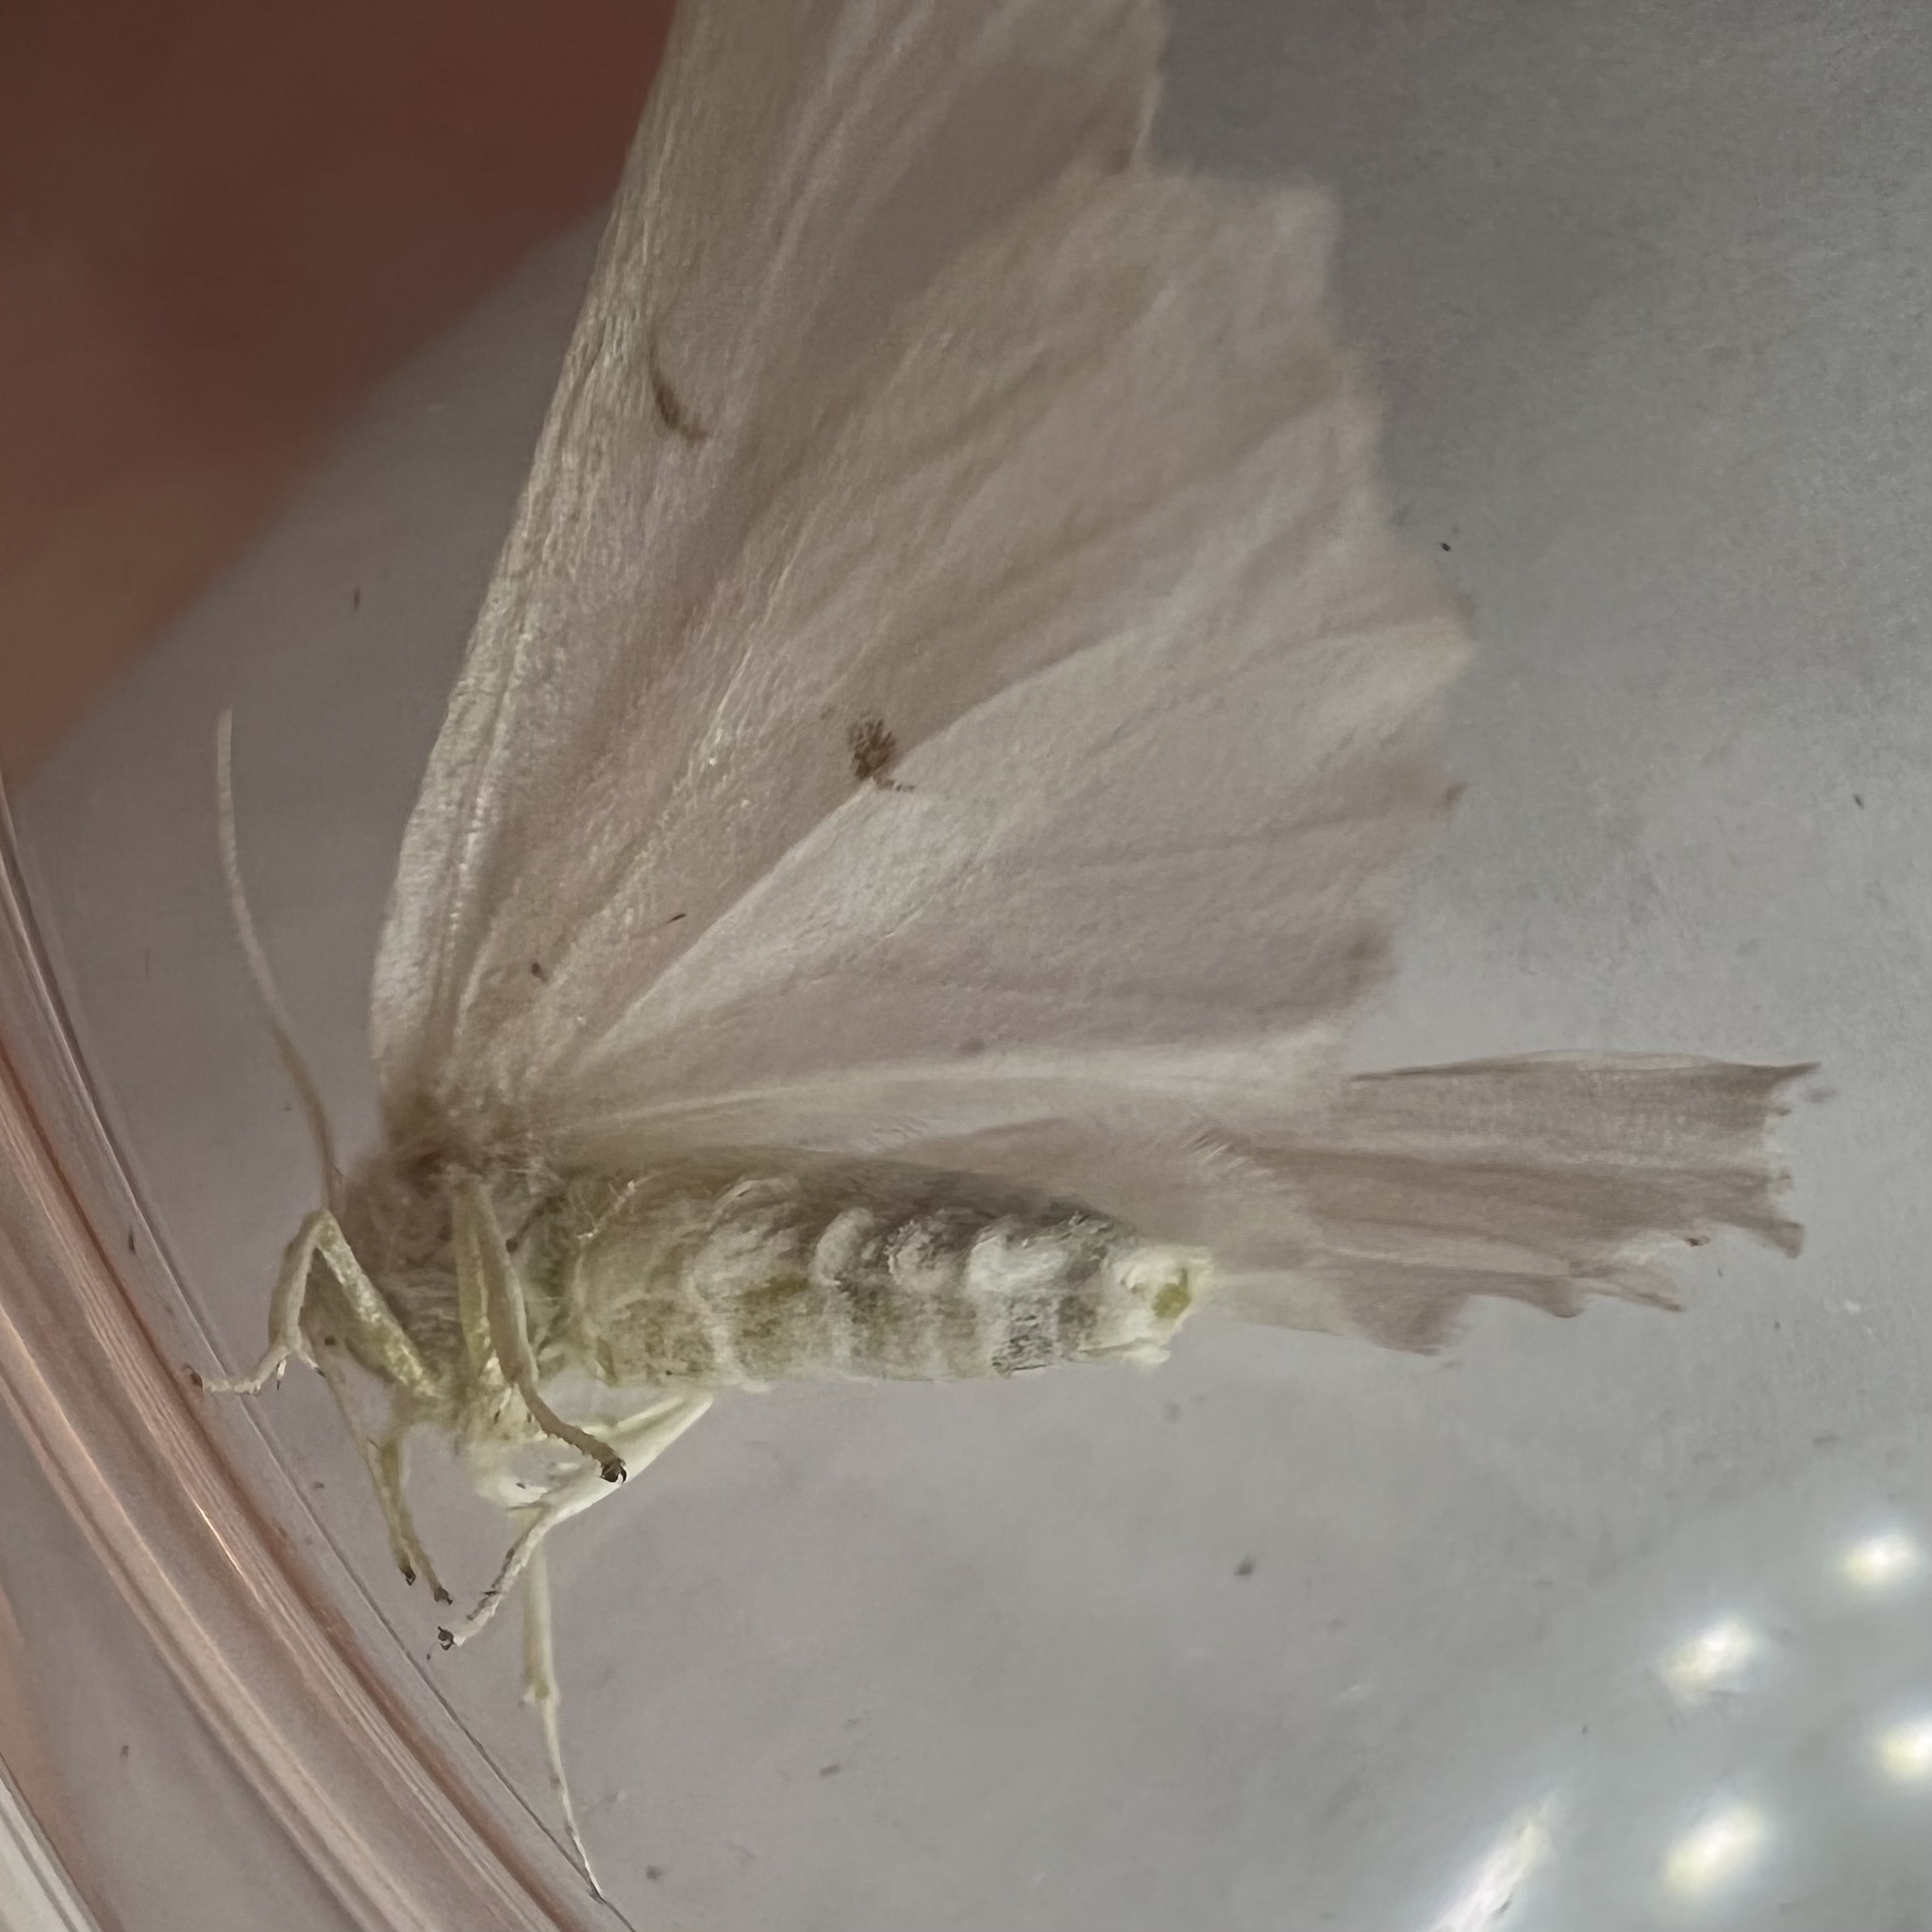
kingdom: Animalia
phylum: Arthropoda
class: Insecta
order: Lepidoptera
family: Geometridae
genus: Ennomos
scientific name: Ennomos subsignaria
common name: Elm spanworm
